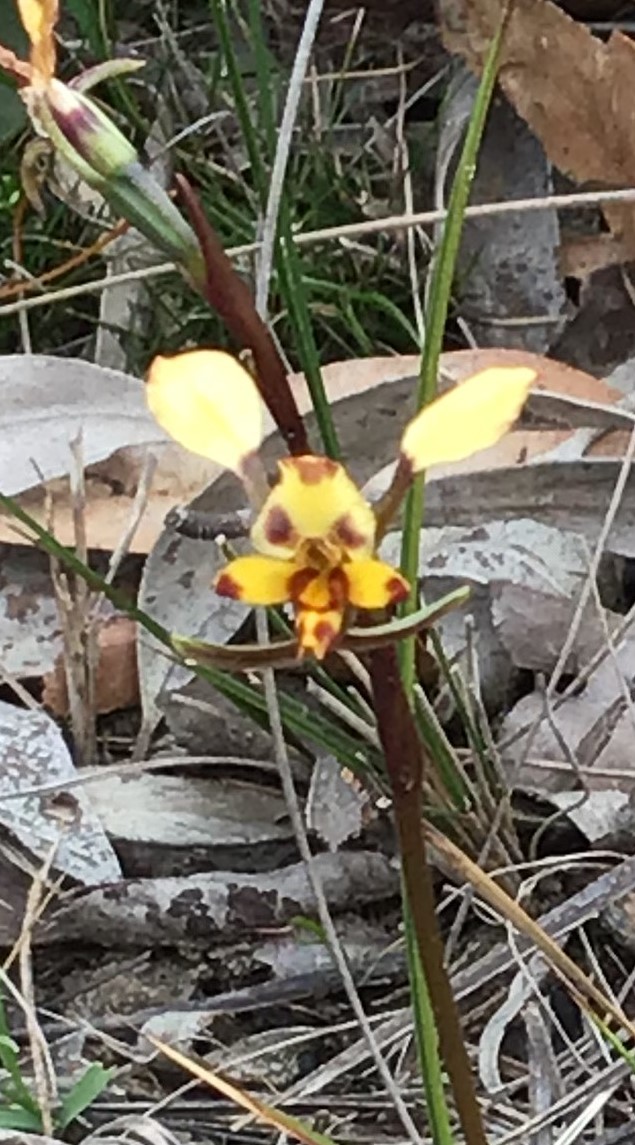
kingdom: Plantae
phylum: Tracheophyta
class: Liliopsida
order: Asparagales
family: Orchidaceae
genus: Diuris
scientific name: Diuris pardina
